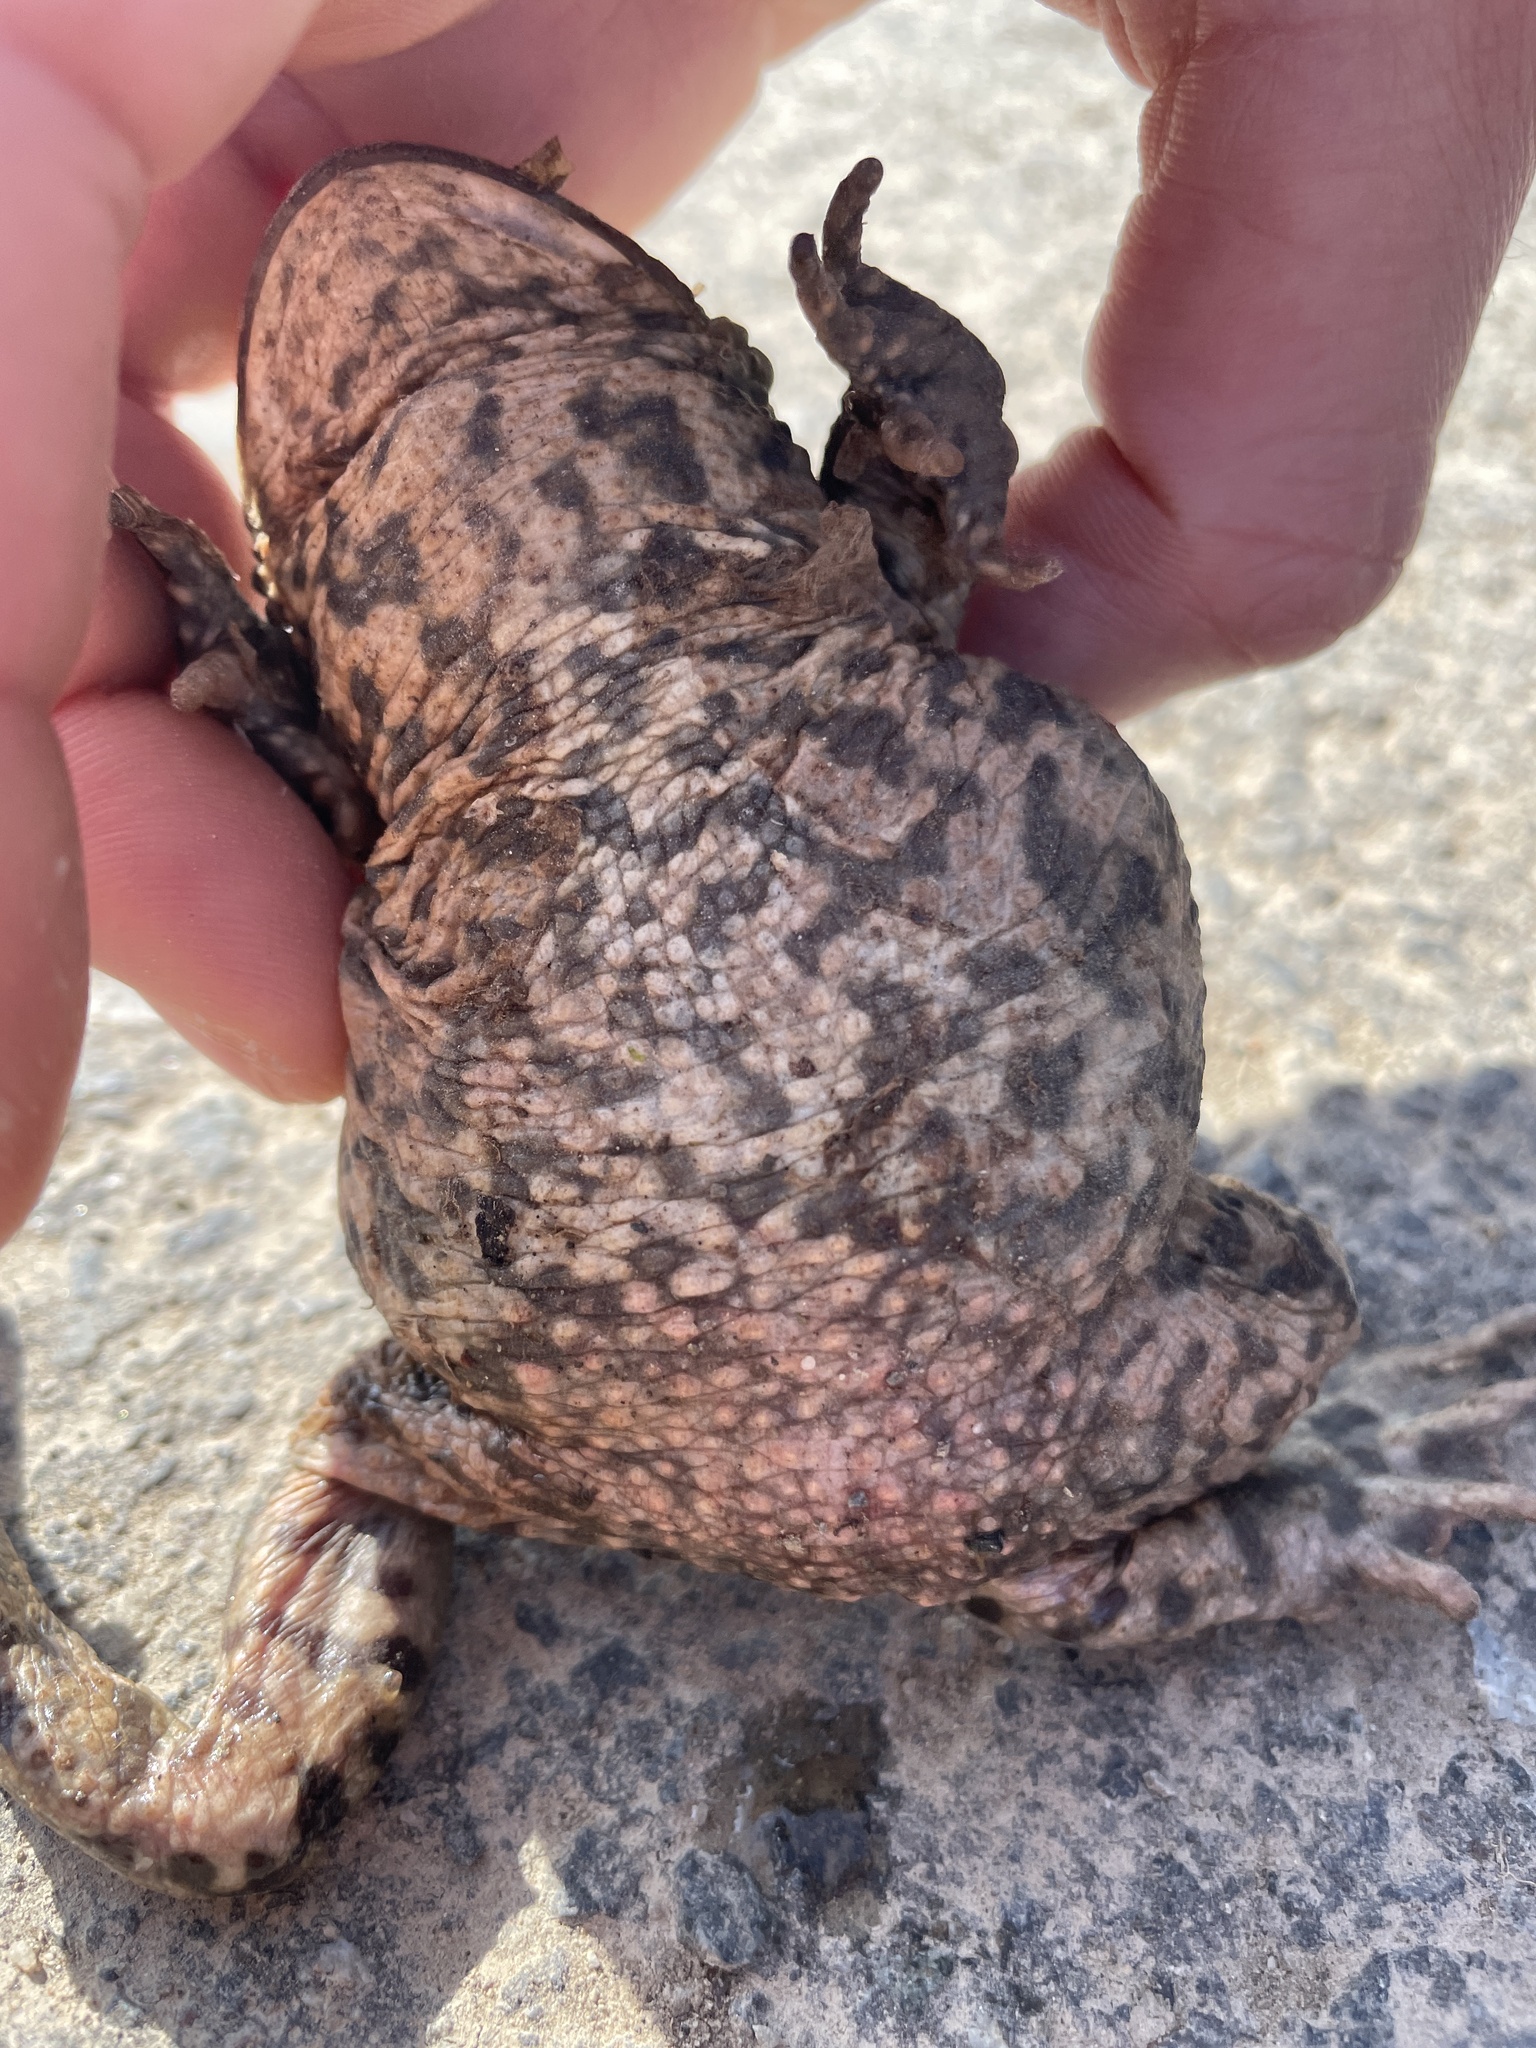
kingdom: Animalia
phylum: Chordata
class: Amphibia
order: Anura
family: Bufonidae
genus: Bufo
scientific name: Bufo bufo
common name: Common toad
